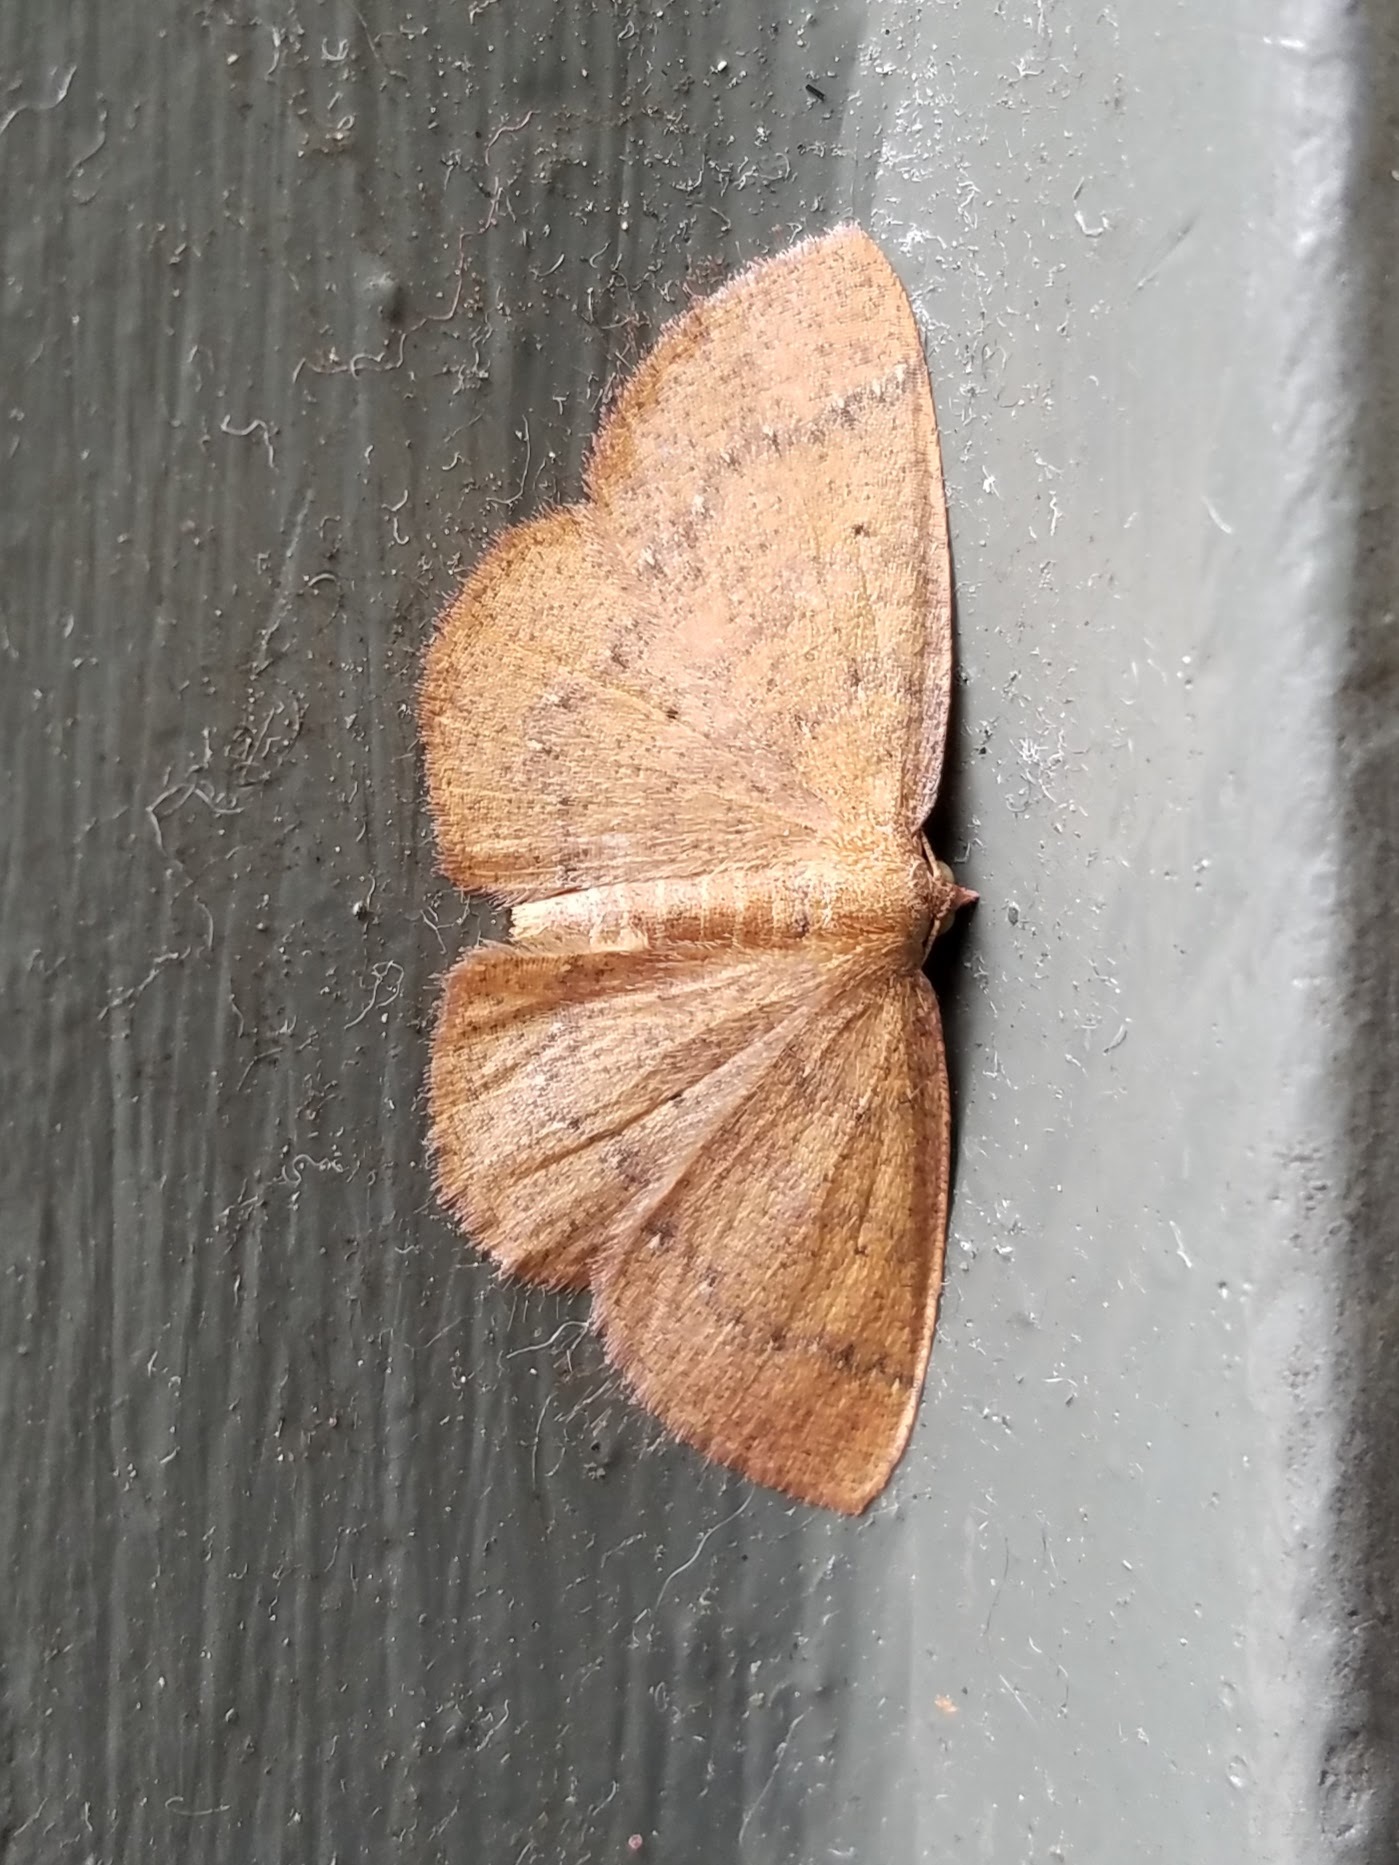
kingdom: Animalia
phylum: Arthropoda
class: Insecta
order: Lepidoptera
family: Geometridae
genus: Ilexia
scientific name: Ilexia intractata
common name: Black-dotted ruddy moth
